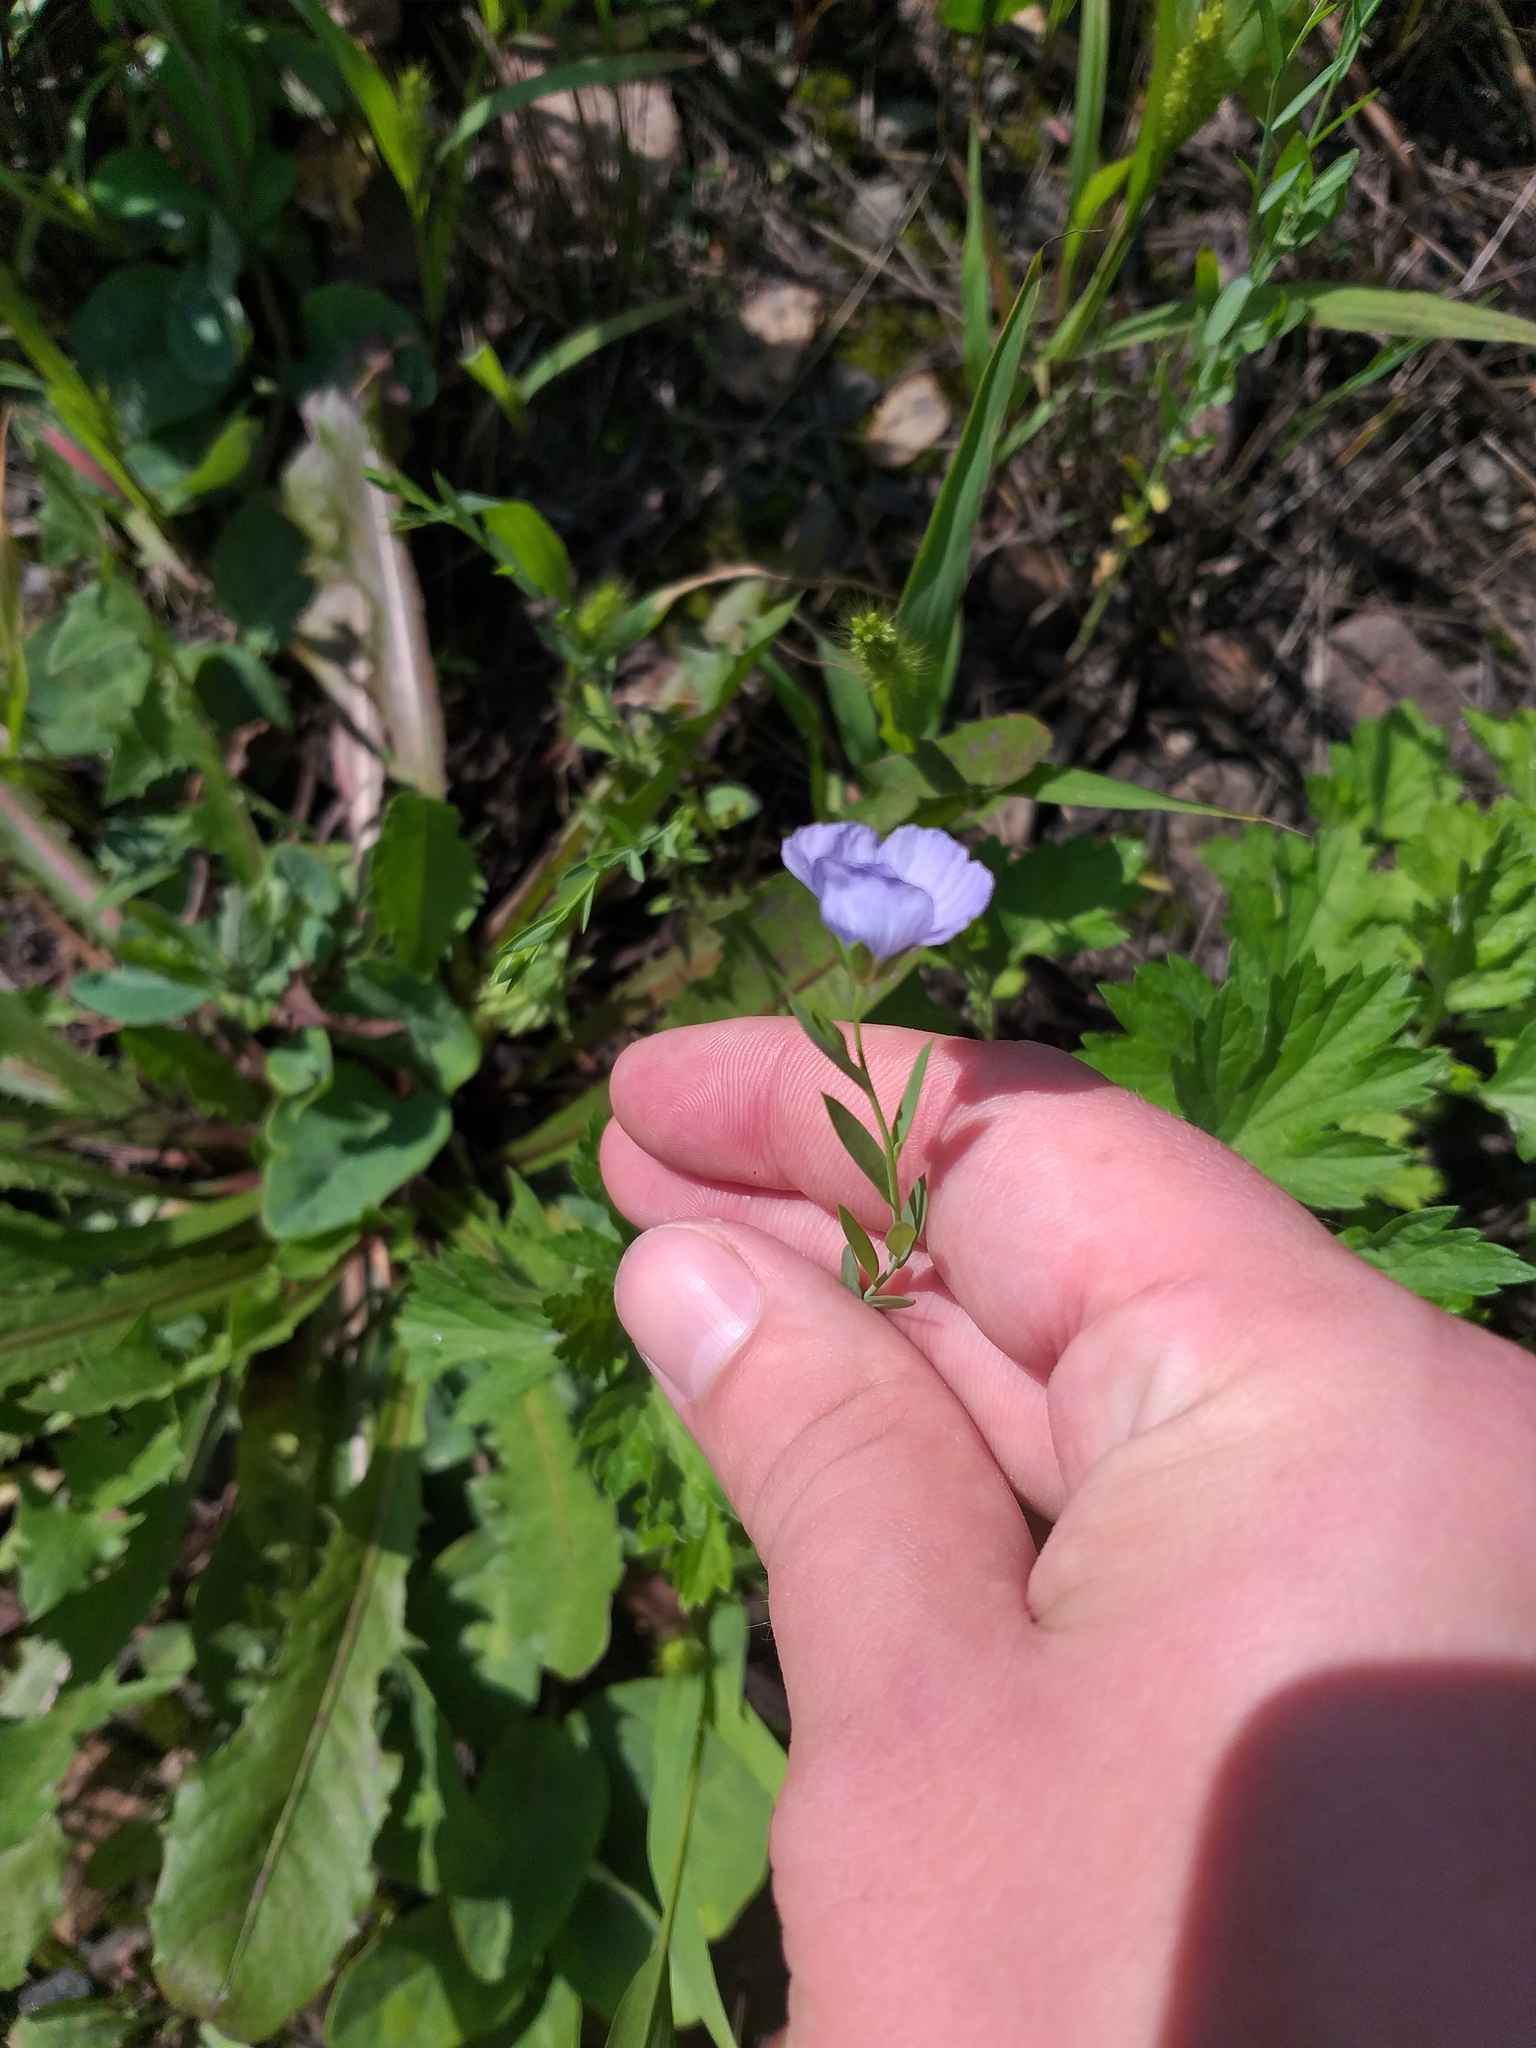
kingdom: Plantae
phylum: Tracheophyta
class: Magnoliopsida
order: Malpighiales
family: Linaceae
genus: Linum
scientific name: Linum usitatissimum
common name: Flax
